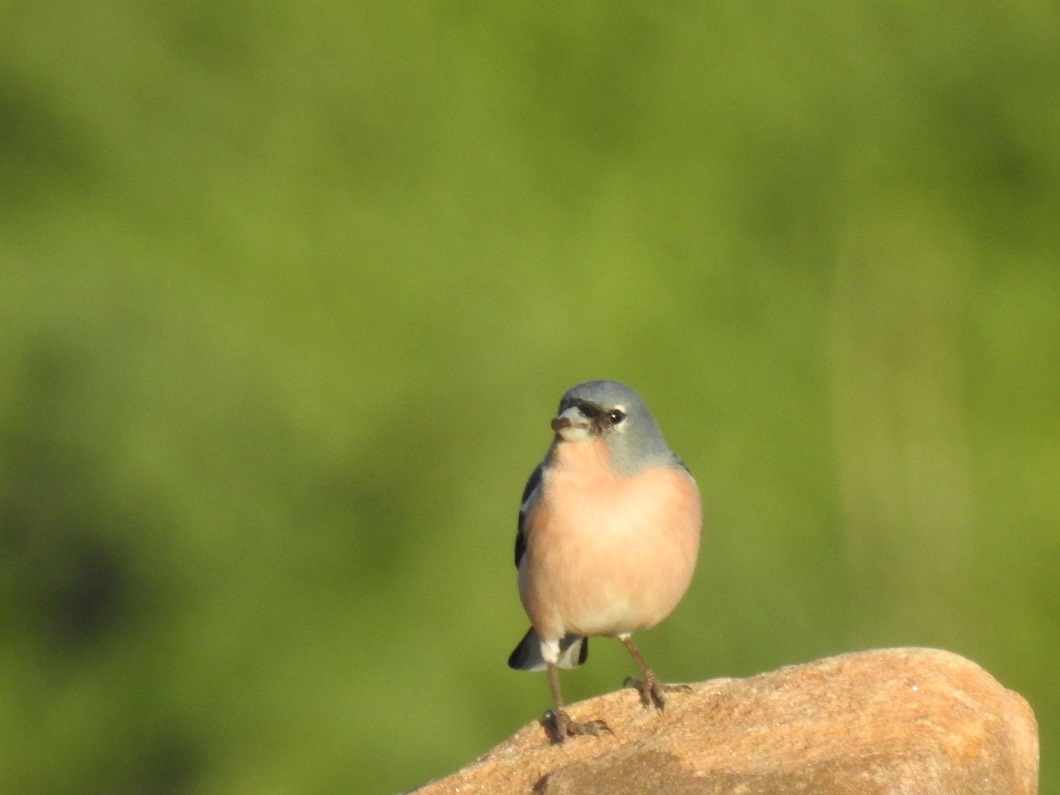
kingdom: Animalia
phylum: Chordata
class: Aves
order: Passeriformes
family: Fringillidae
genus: Fringilla
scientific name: Fringilla spodiogenys
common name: African chaffinch
